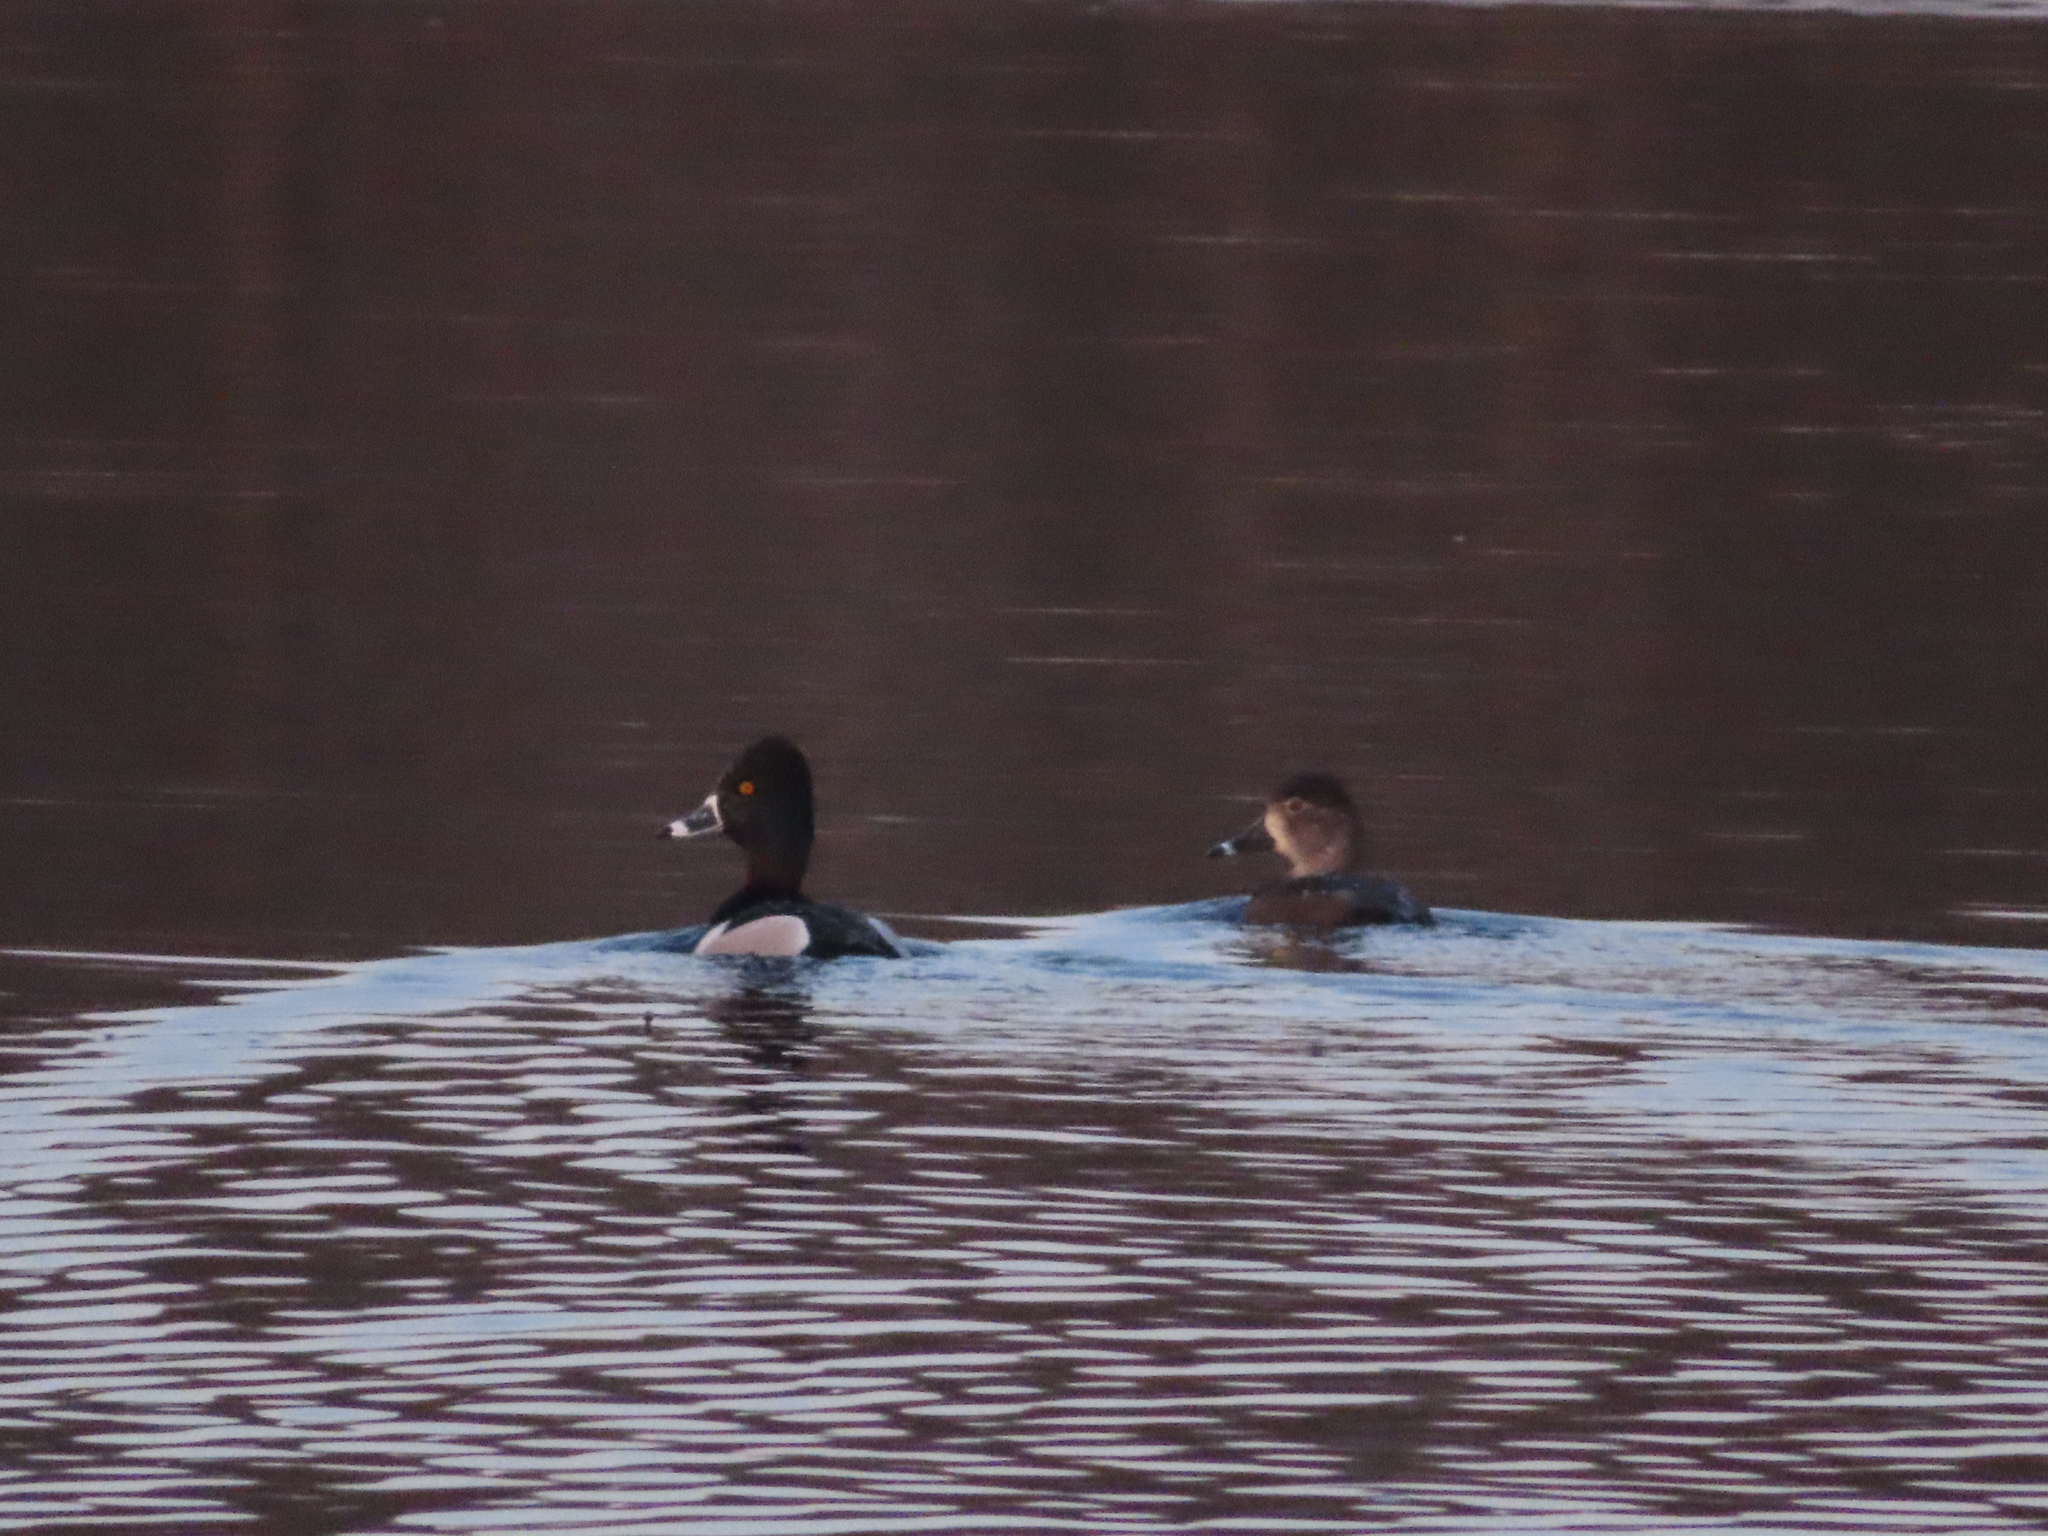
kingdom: Animalia
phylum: Chordata
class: Aves
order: Anseriformes
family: Anatidae
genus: Aythya
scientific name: Aythya collaris
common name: Ring-necked duck
